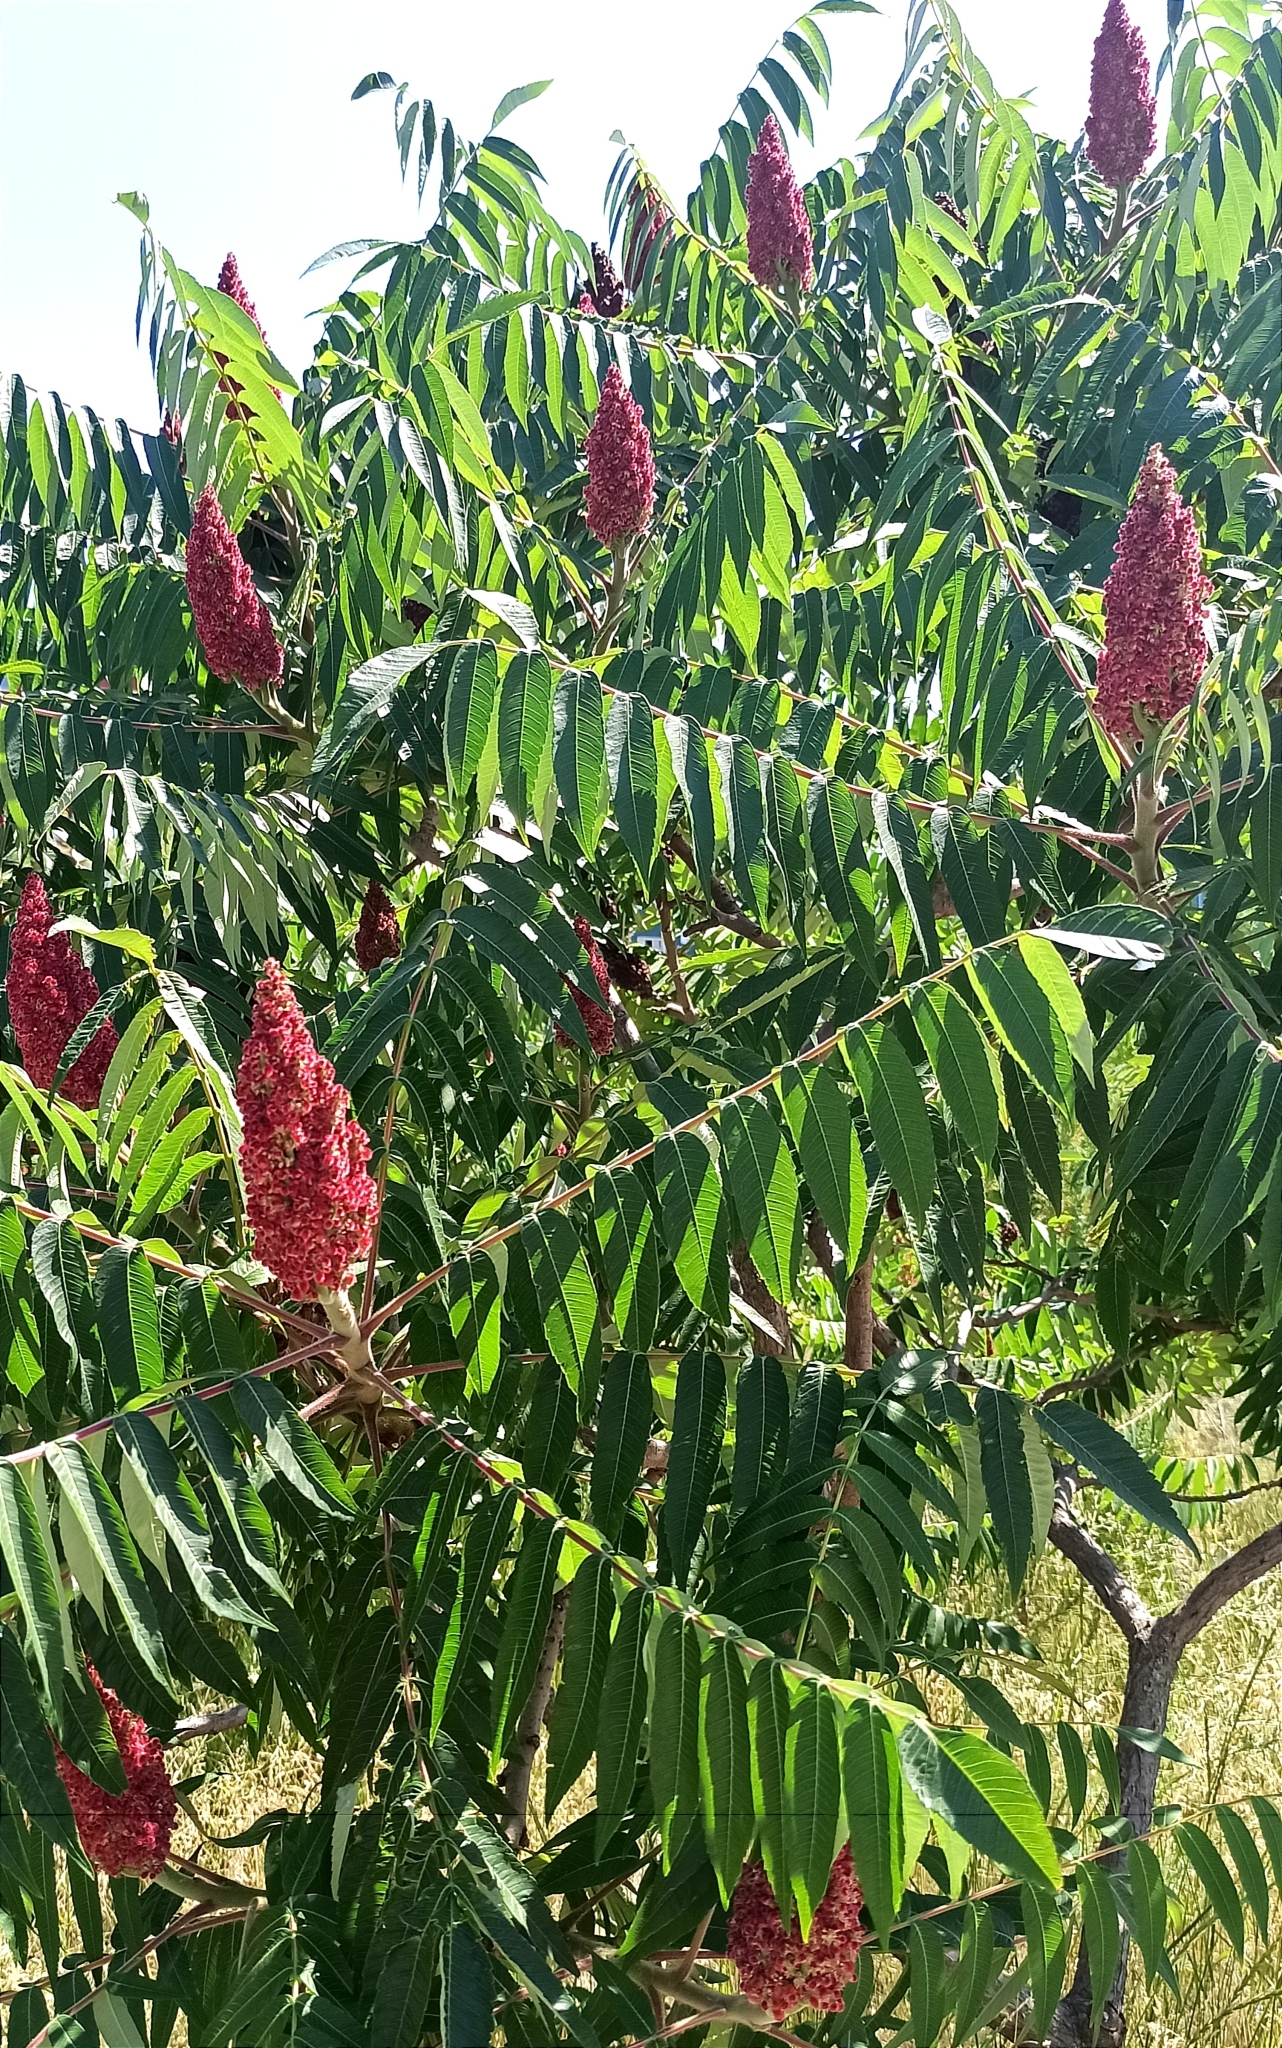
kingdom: Plantae
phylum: Tracheophyta
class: Magnoliopsida
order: Sapindales
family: Anacardiaceae
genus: Rhus
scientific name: Rhus typhina
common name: Staghorn sumac
